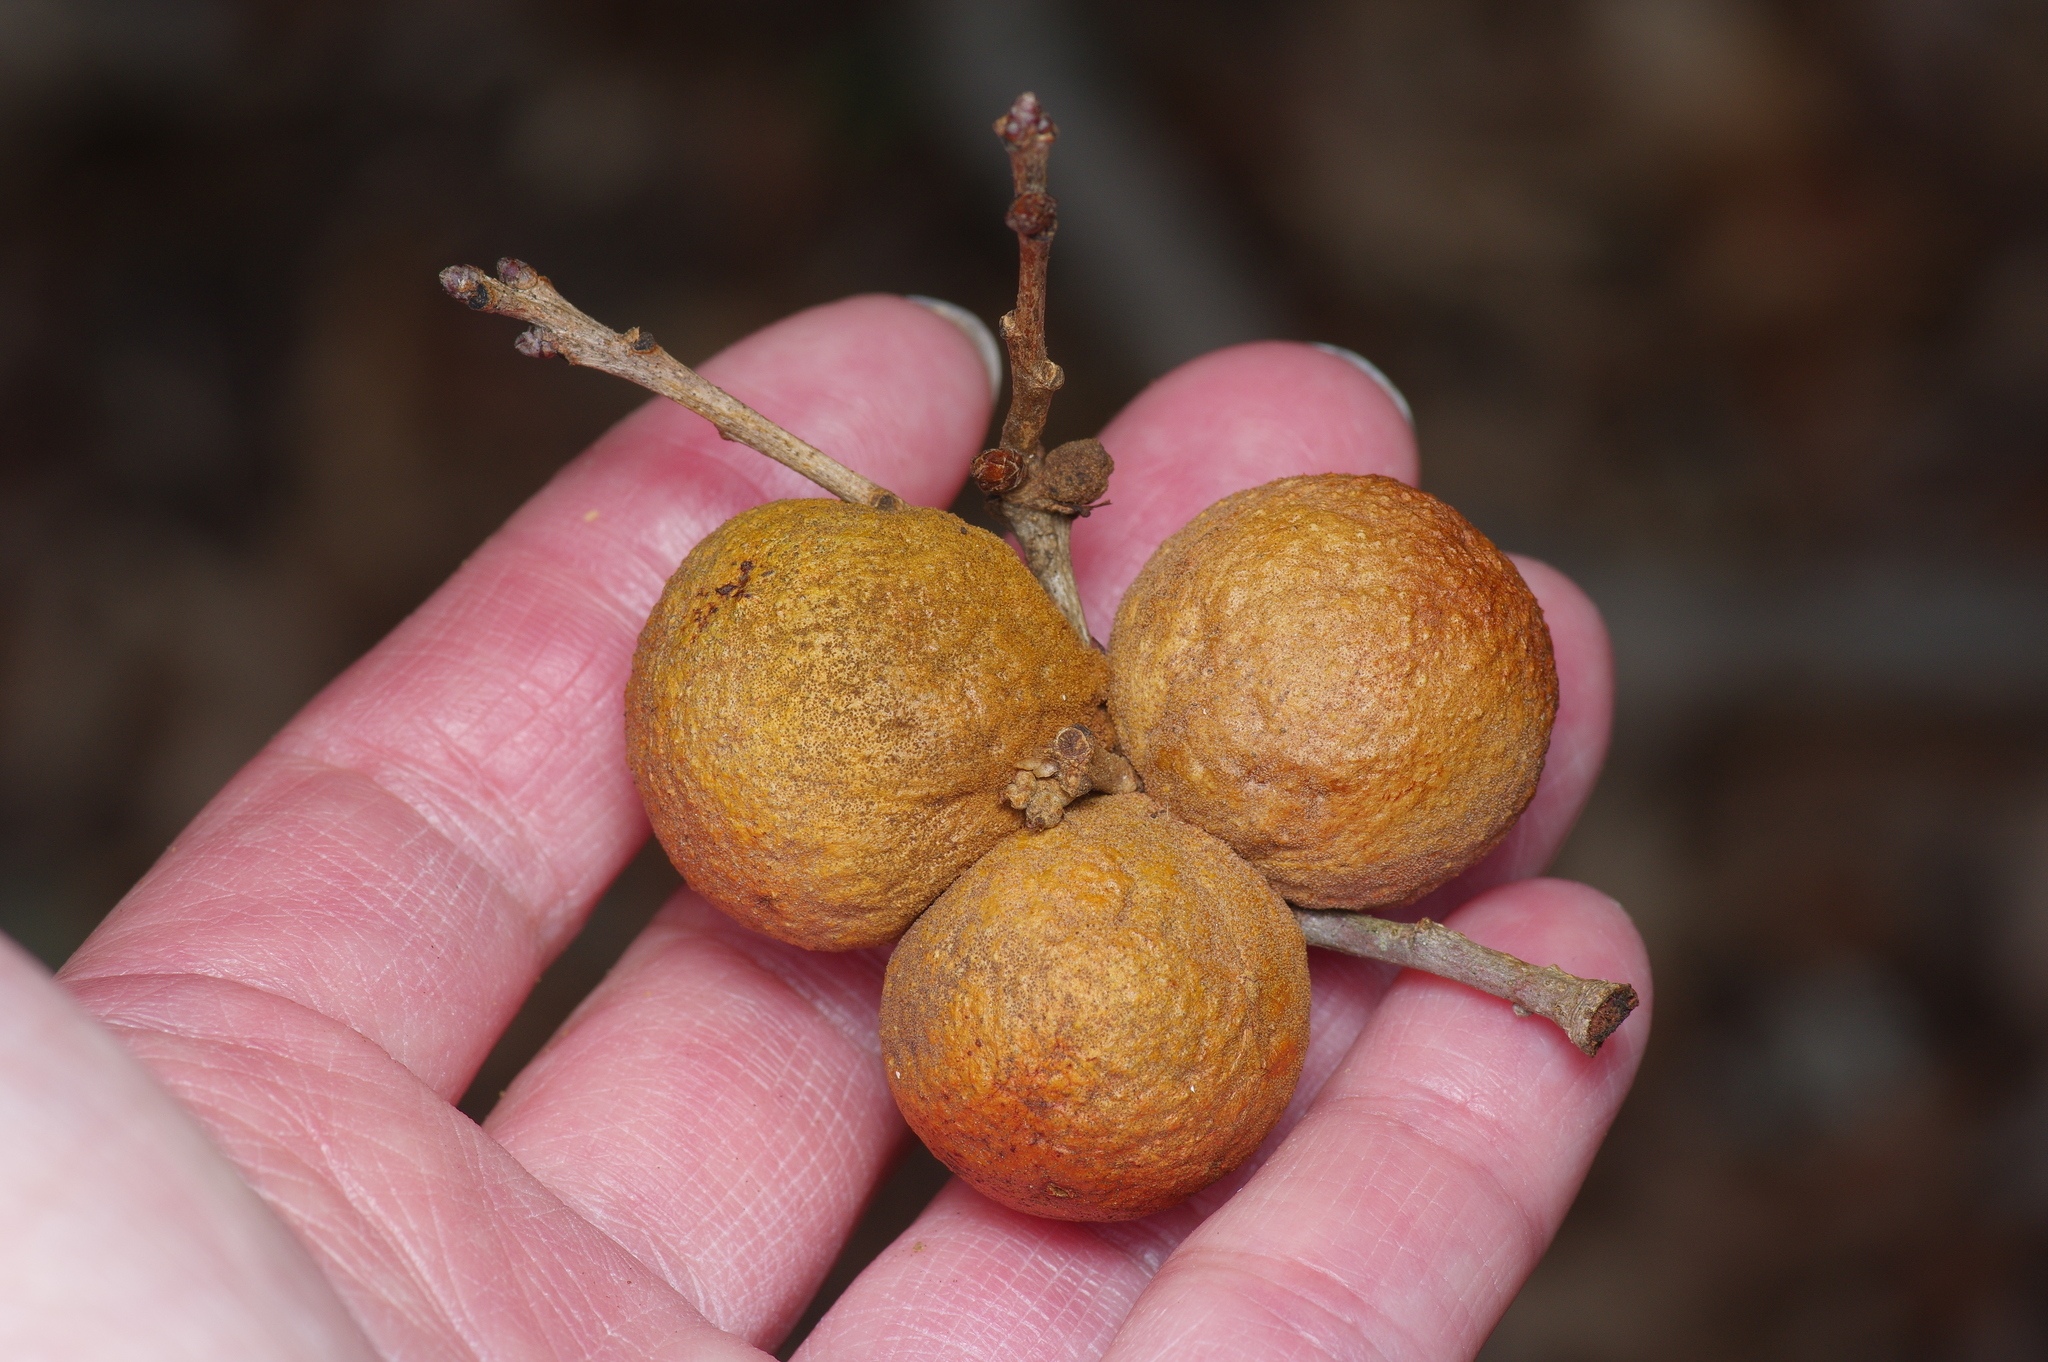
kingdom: Animalia
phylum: Arthropoda
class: Insecta
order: Hymenoptera
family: Cynipidae
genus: Disholcaspis
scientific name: Disholcaspis
